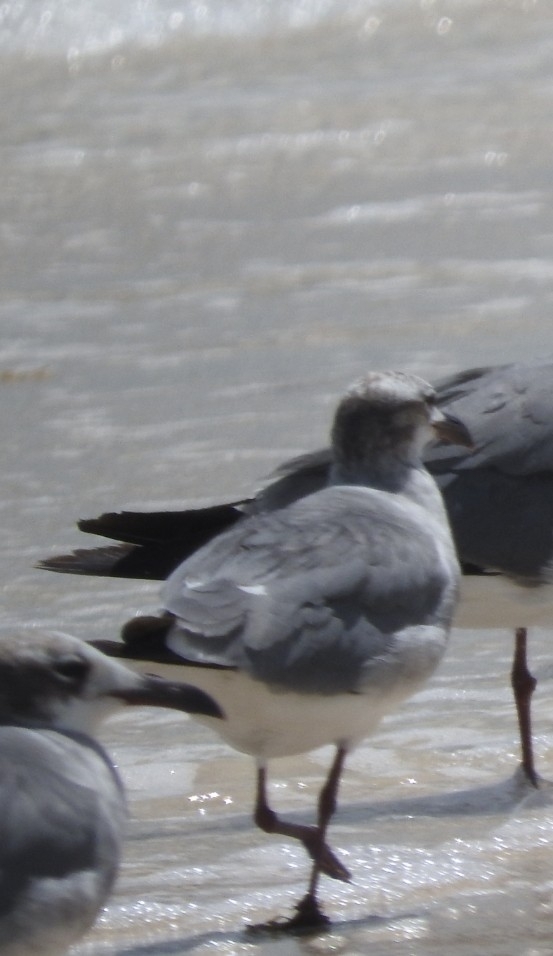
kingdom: Animalia
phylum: Chordata
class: Aves
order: Charadriiformes
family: Laridae
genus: Leucophaeus
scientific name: Leucophaeus atricilla
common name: Laughing gull
